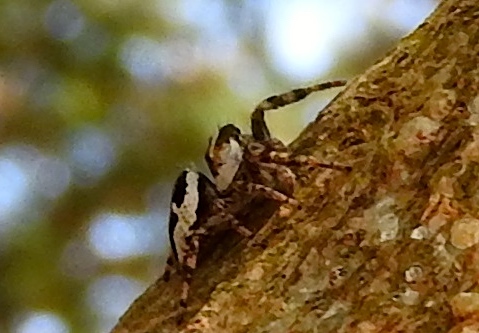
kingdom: Animalia
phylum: Arthropoda
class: Arachnida
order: Araneae
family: Salticidae
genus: Dendryphantes
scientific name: Dendryphantes zygoballoides
